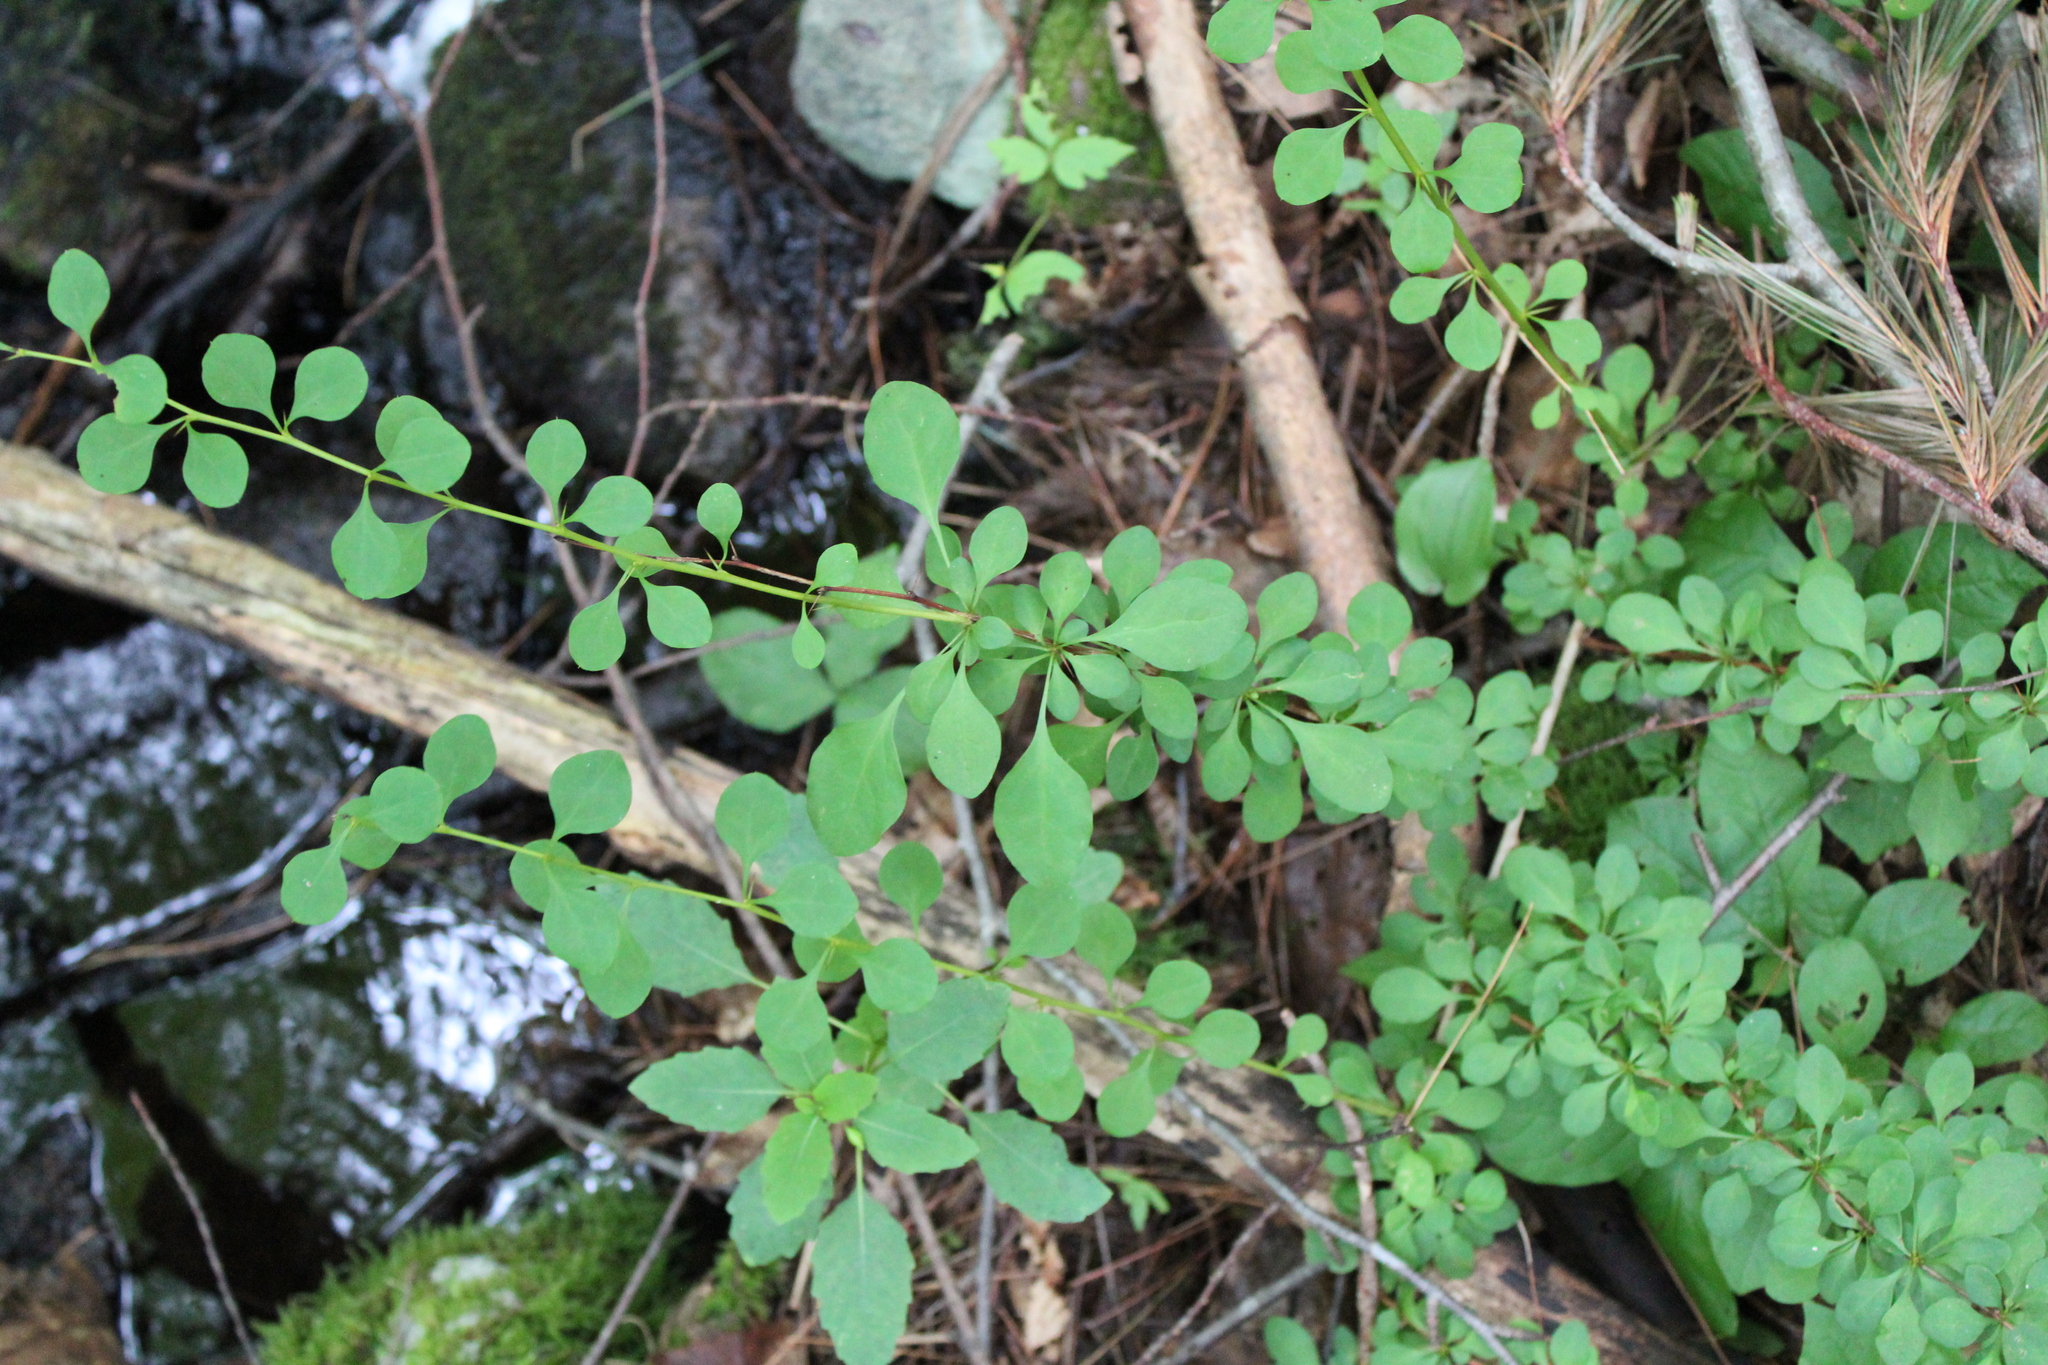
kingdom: Plantae
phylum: Tracheophyta
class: Magnoliopsida
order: Ranunculales
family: Berberidaceae
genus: Berberis
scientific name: Berberis thunbergii
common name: Japanese barberry
